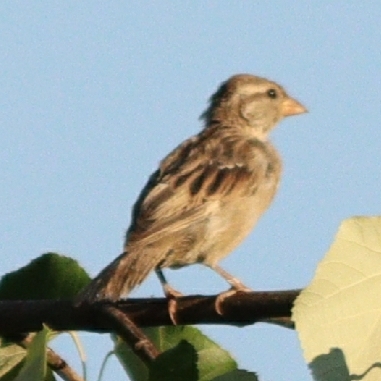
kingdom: Animalia
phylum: Chordata
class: Aves
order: Passeriformes
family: Passeridae
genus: Passer
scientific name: Passer domesticus
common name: House sparrow
